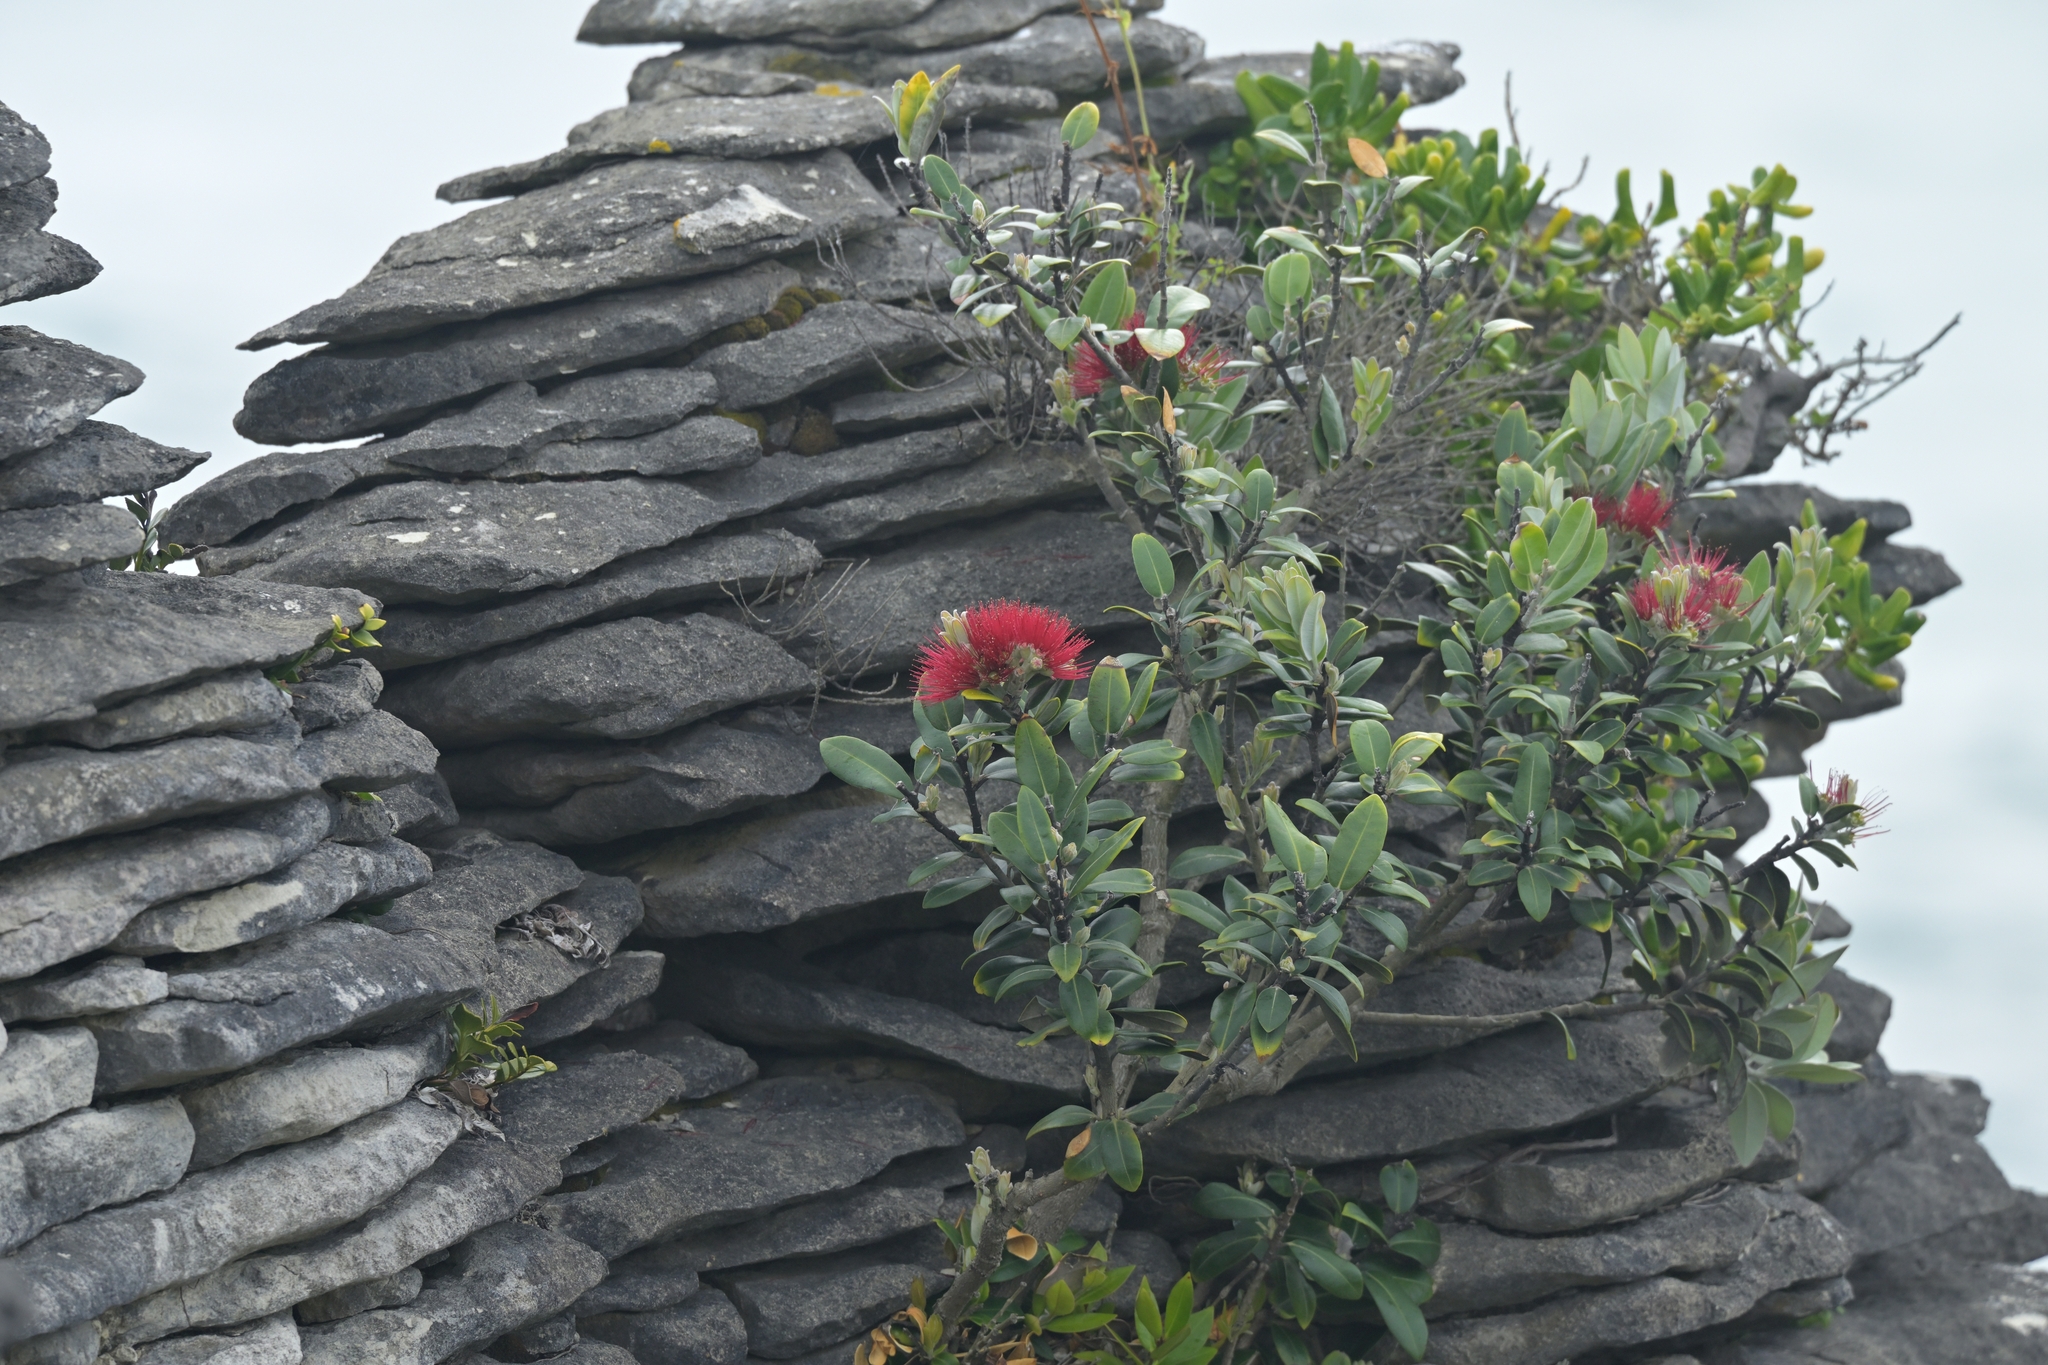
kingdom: Plantae
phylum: Tracheophyta
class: Magnoliopsida
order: Myrtales
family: Myrtaceae
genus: Metrosideros
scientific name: Metrosideros excelsa
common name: New zealand christmastree
